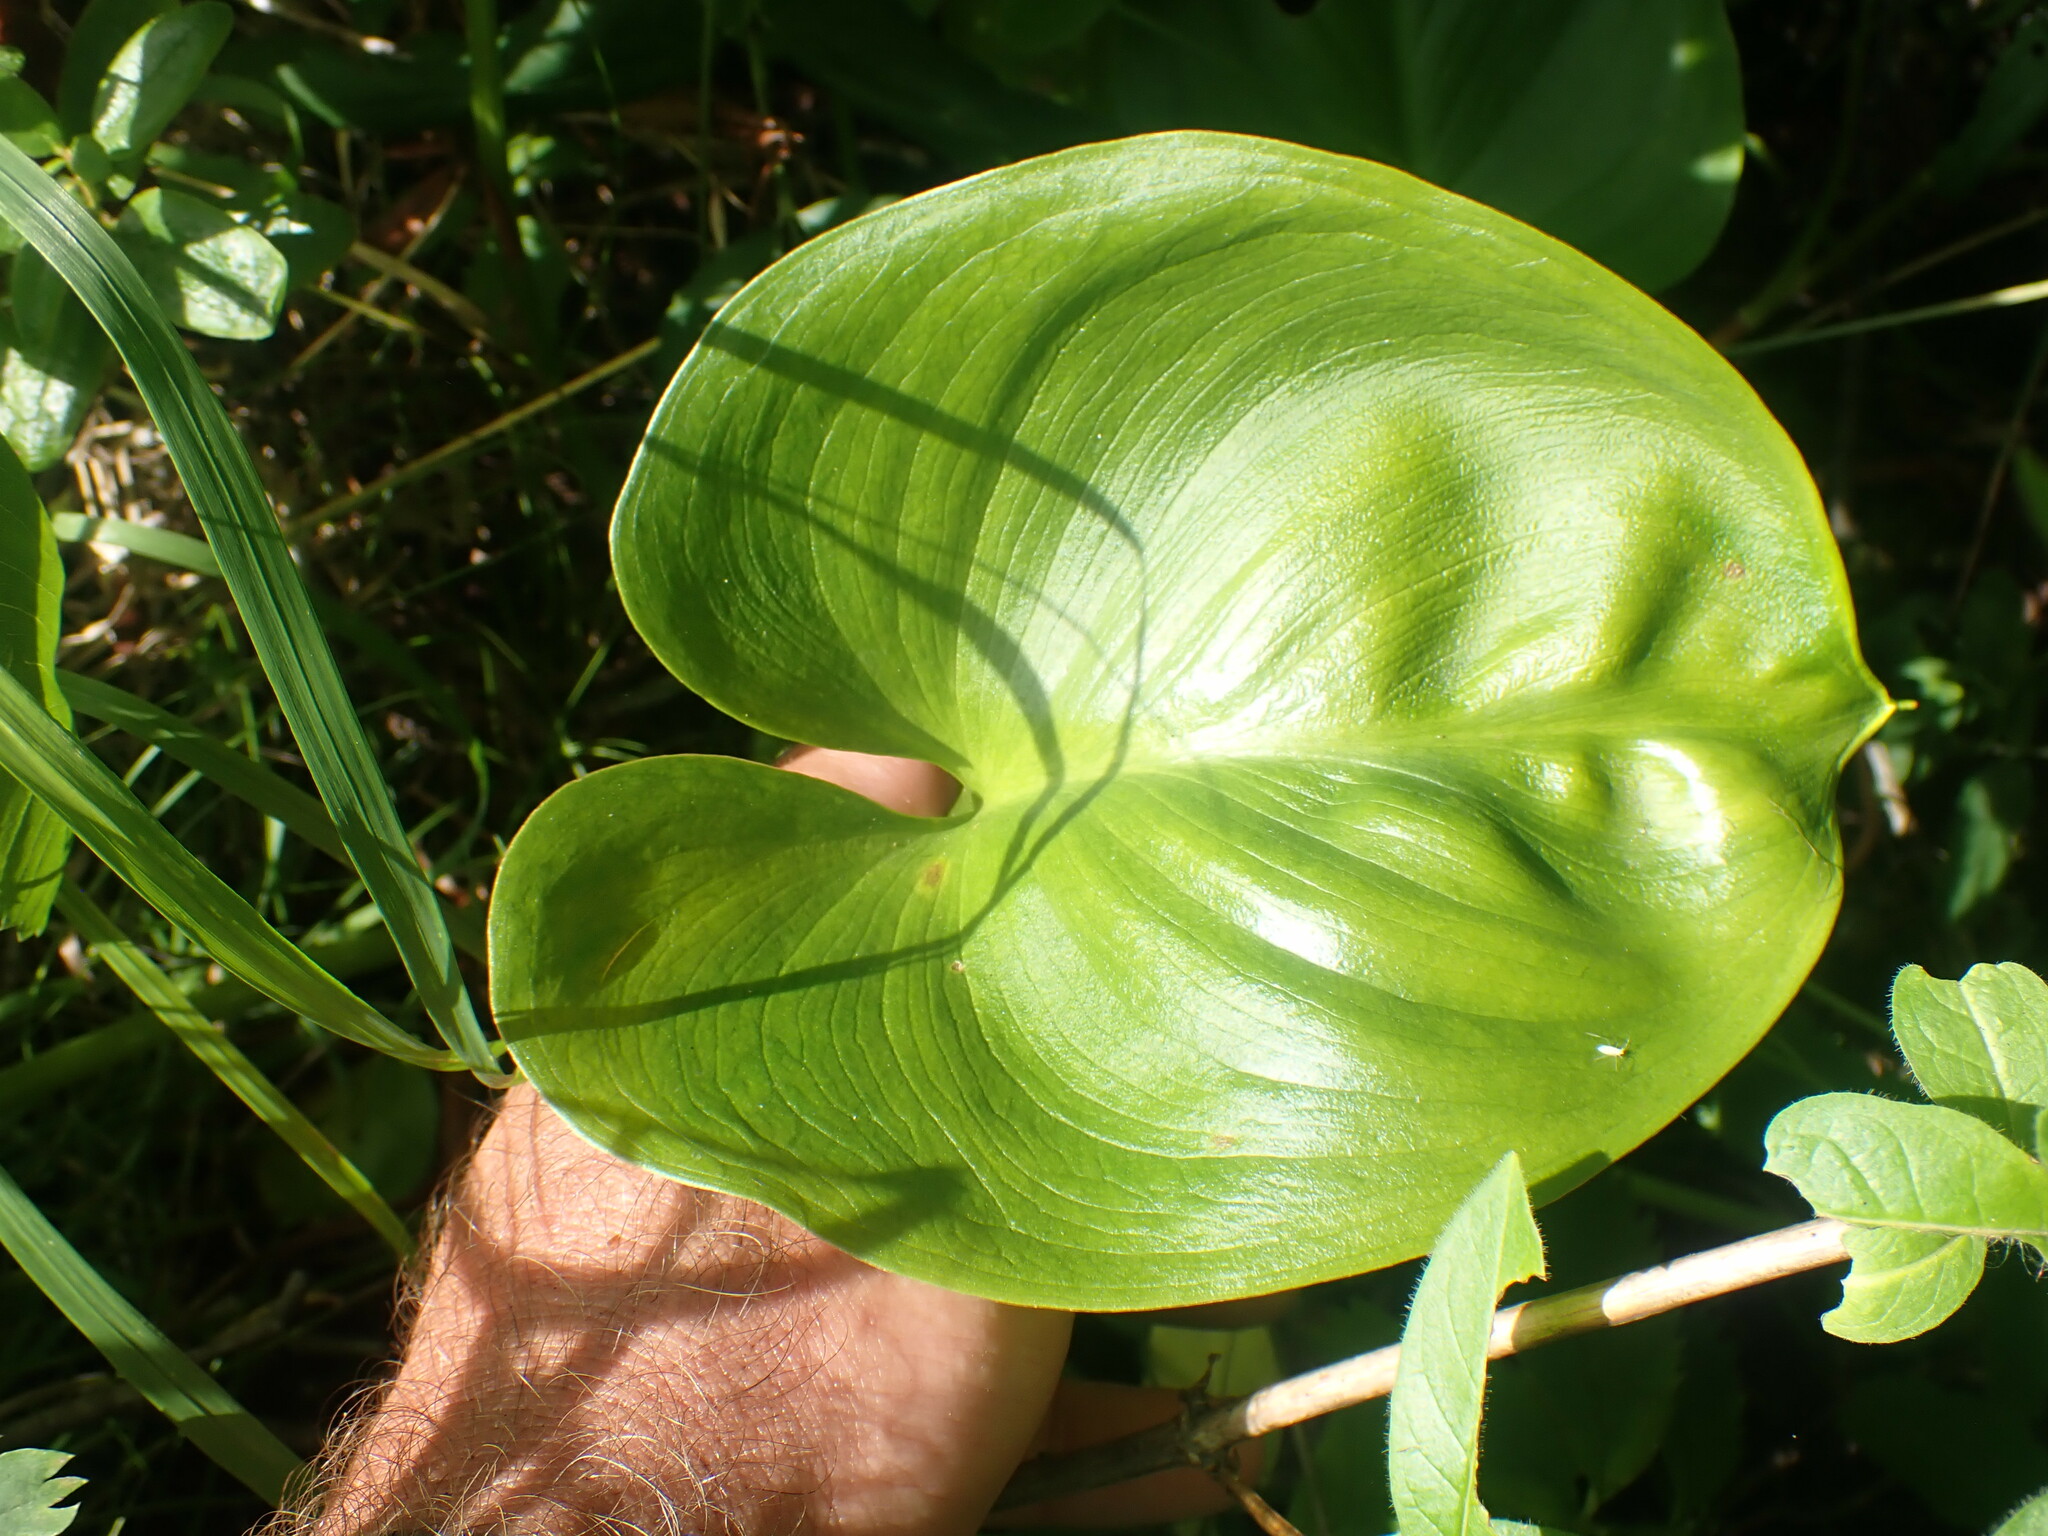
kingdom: Plantae
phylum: Tracheophyta
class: Liliopsida
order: Alismatales
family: Araceae
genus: Calla
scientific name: Calla palustris
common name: Bog arum
